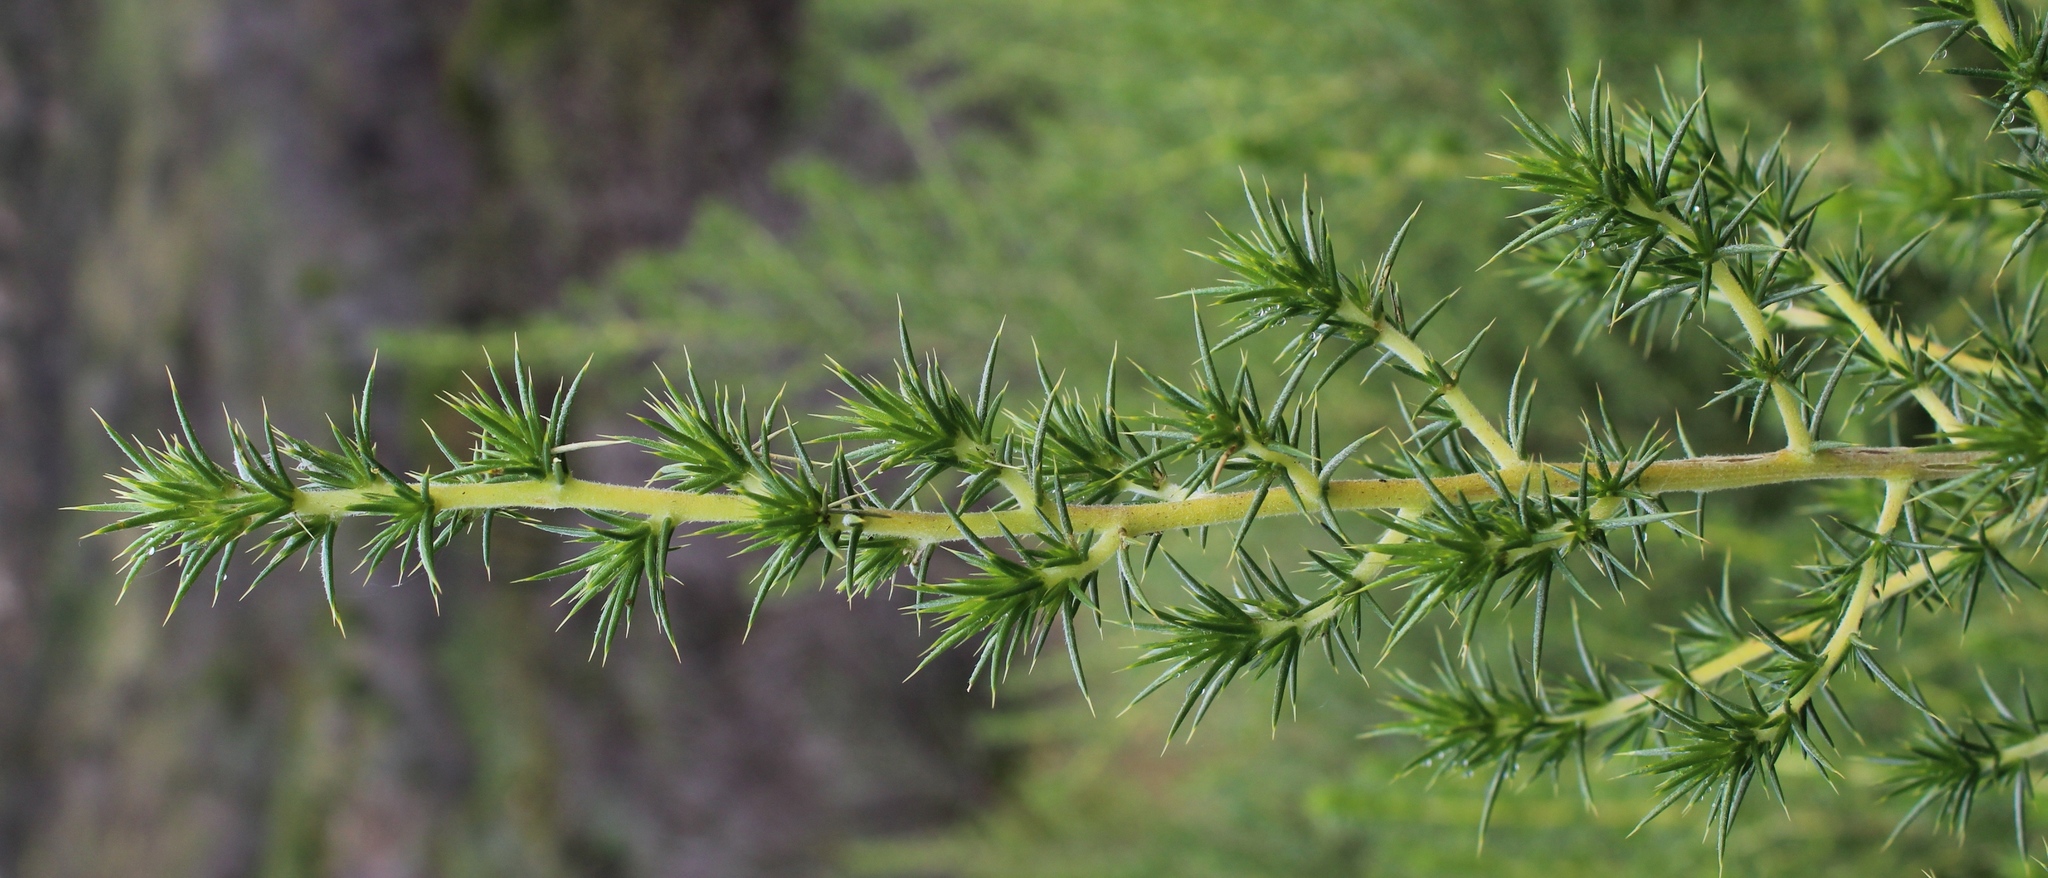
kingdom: Plantae
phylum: Tracheophyta
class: Magnoliopsida
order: Fabales
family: Fabaceae
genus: Aspalathus
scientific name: Aspalathus astroites
